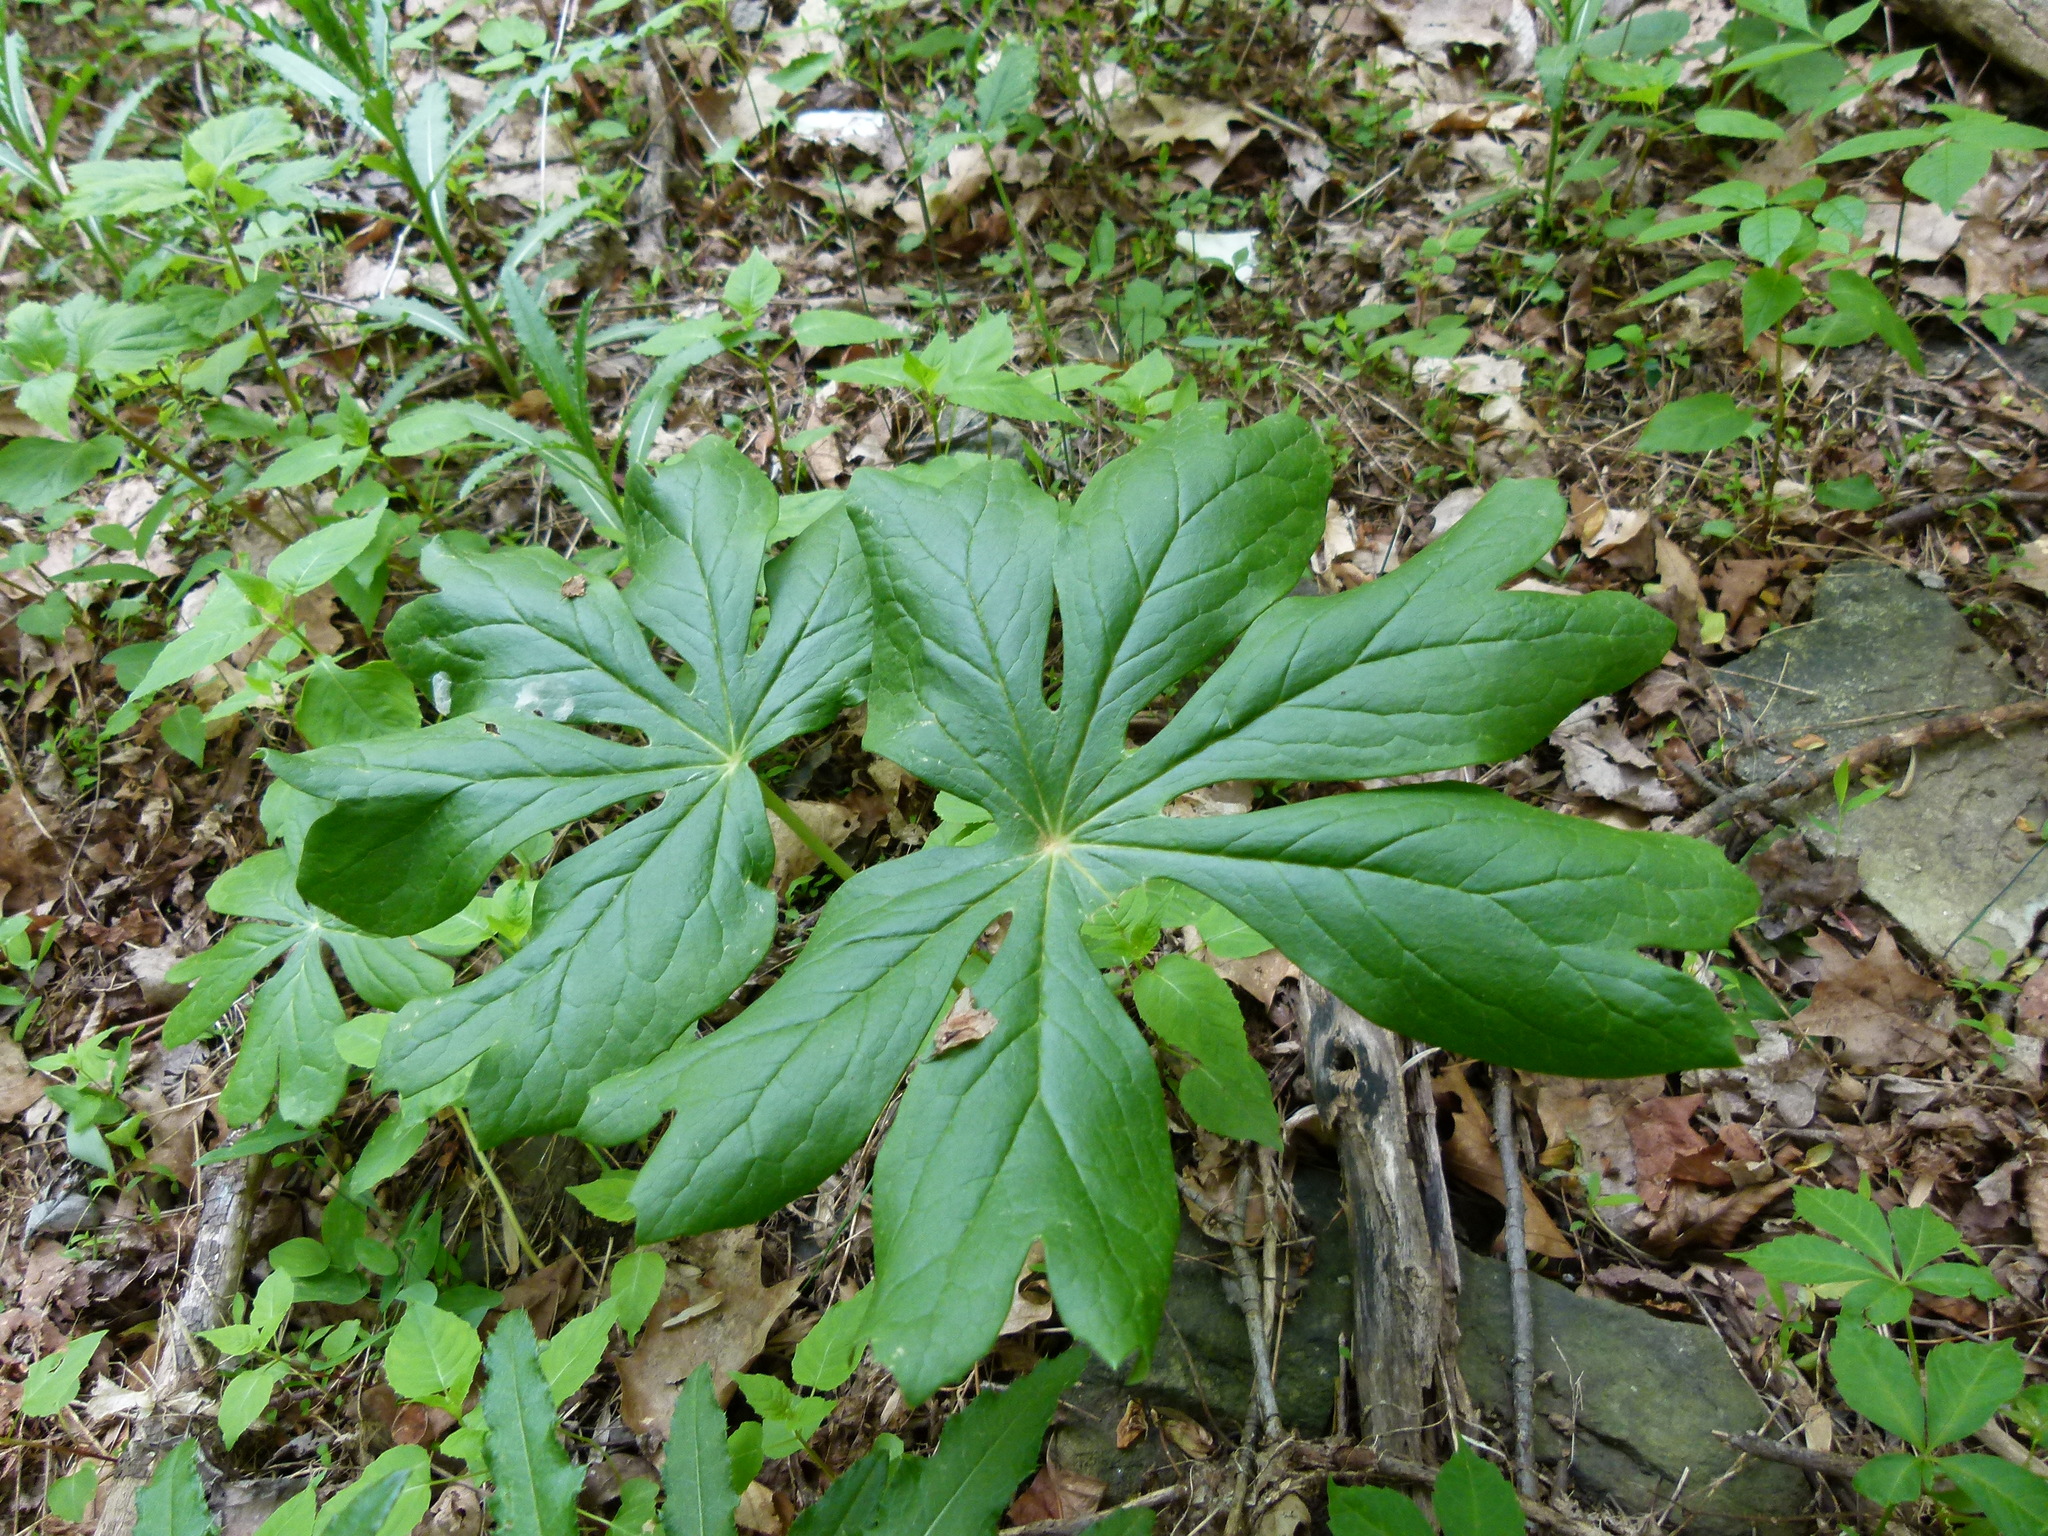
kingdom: Plantae
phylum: Tracheophyta
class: Magnoliopsida
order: Ranunculales
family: Berberidaceae
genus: Podophyllum
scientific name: Podophyllum peltatum
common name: Wild mandrake
